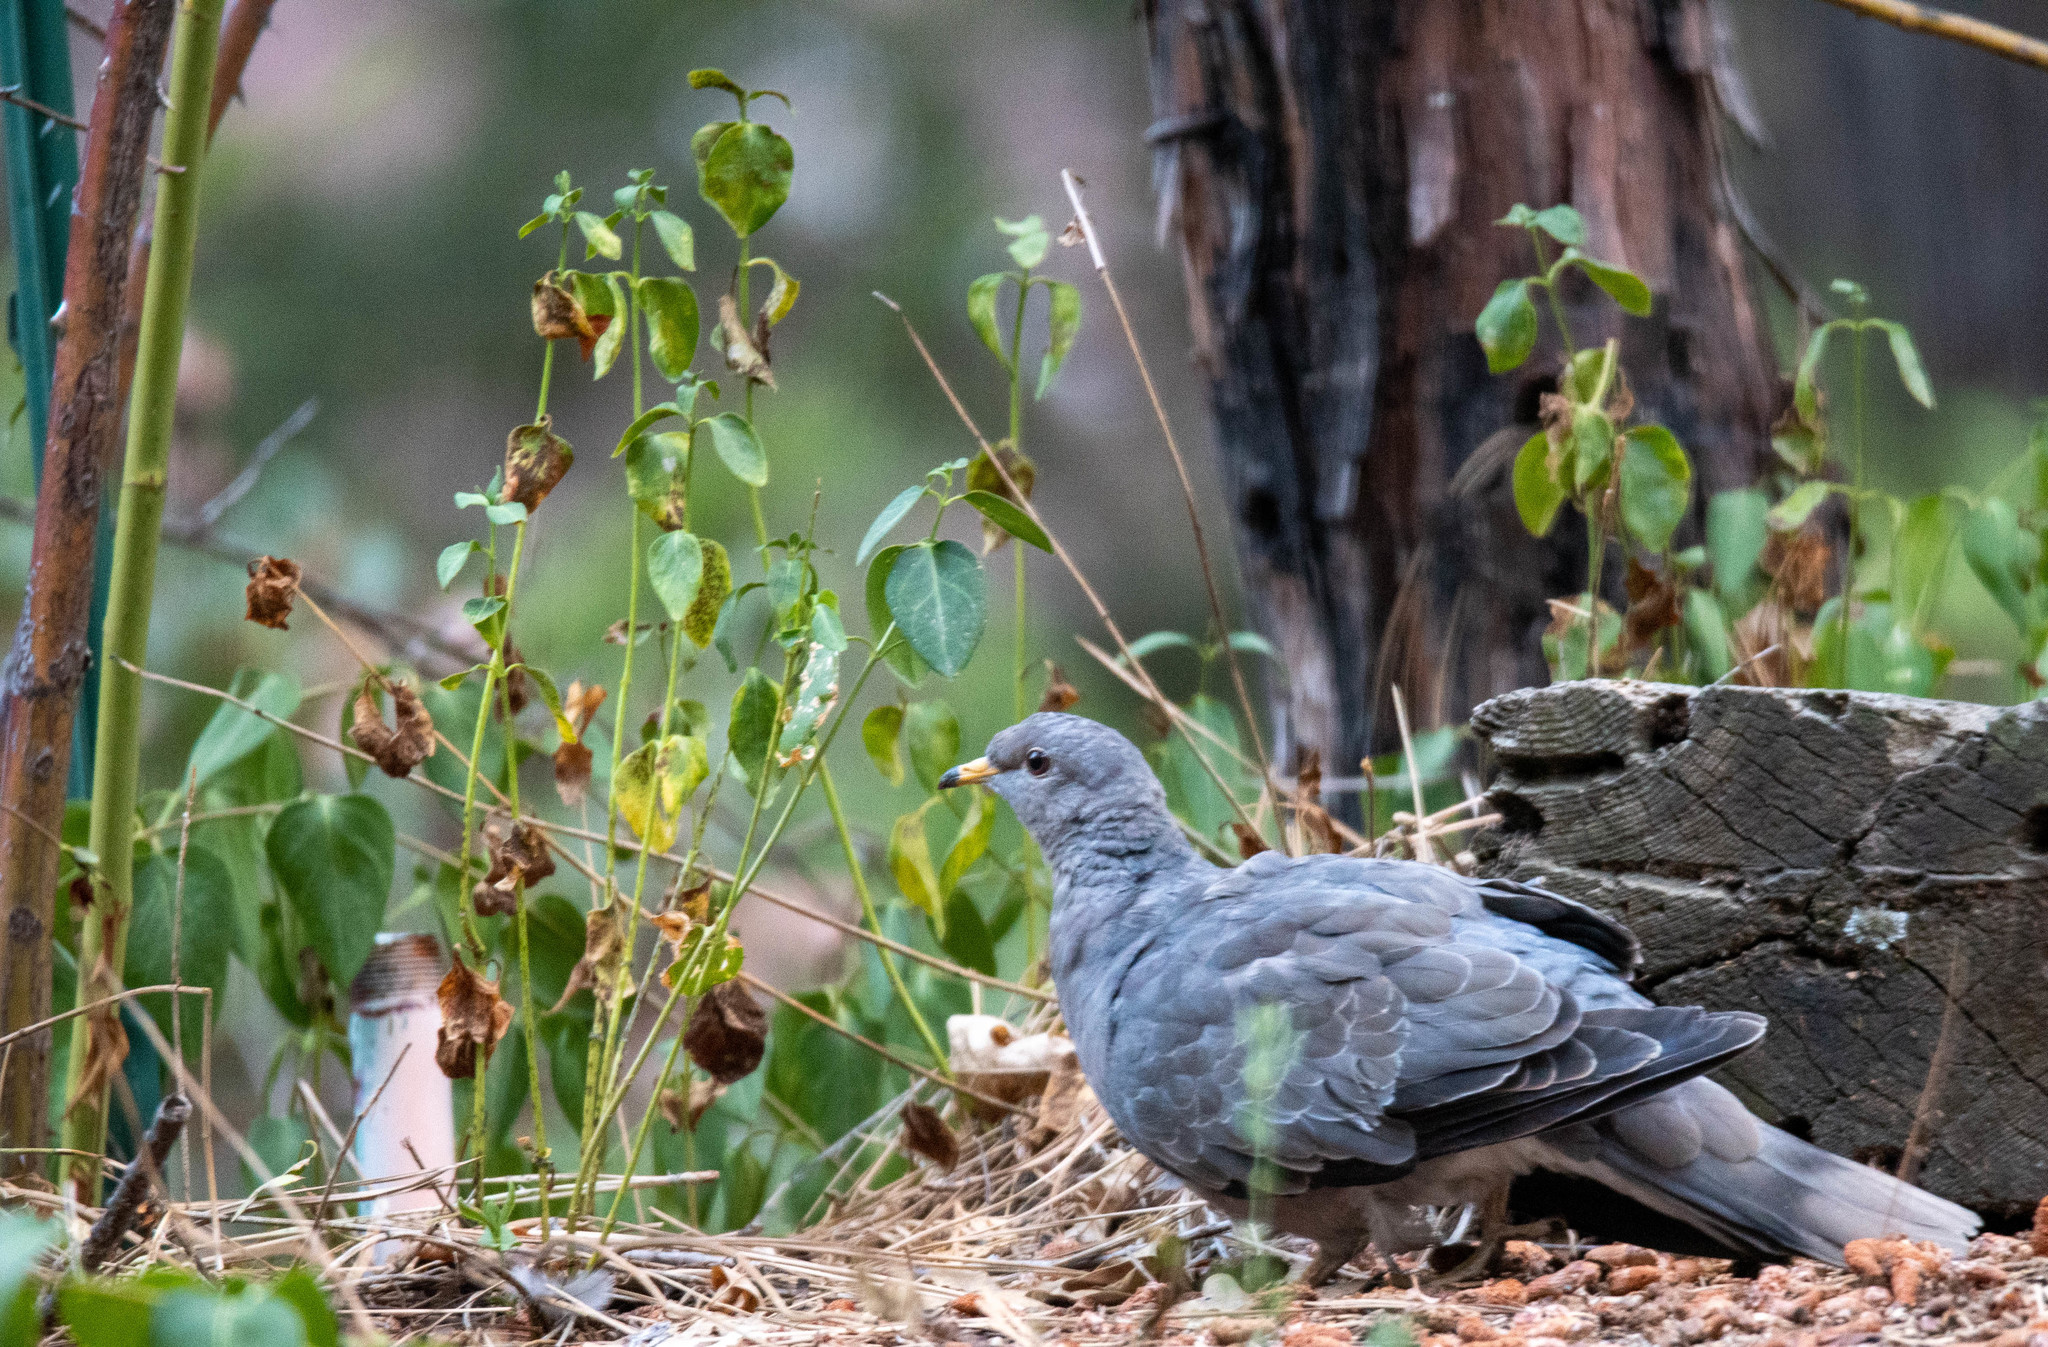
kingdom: Animalia
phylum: Chordata
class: Aves
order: Columbiformes
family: Columbidae
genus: Patagioenas
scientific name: Patagioenas fasciata
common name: Band-tailed pigeon
